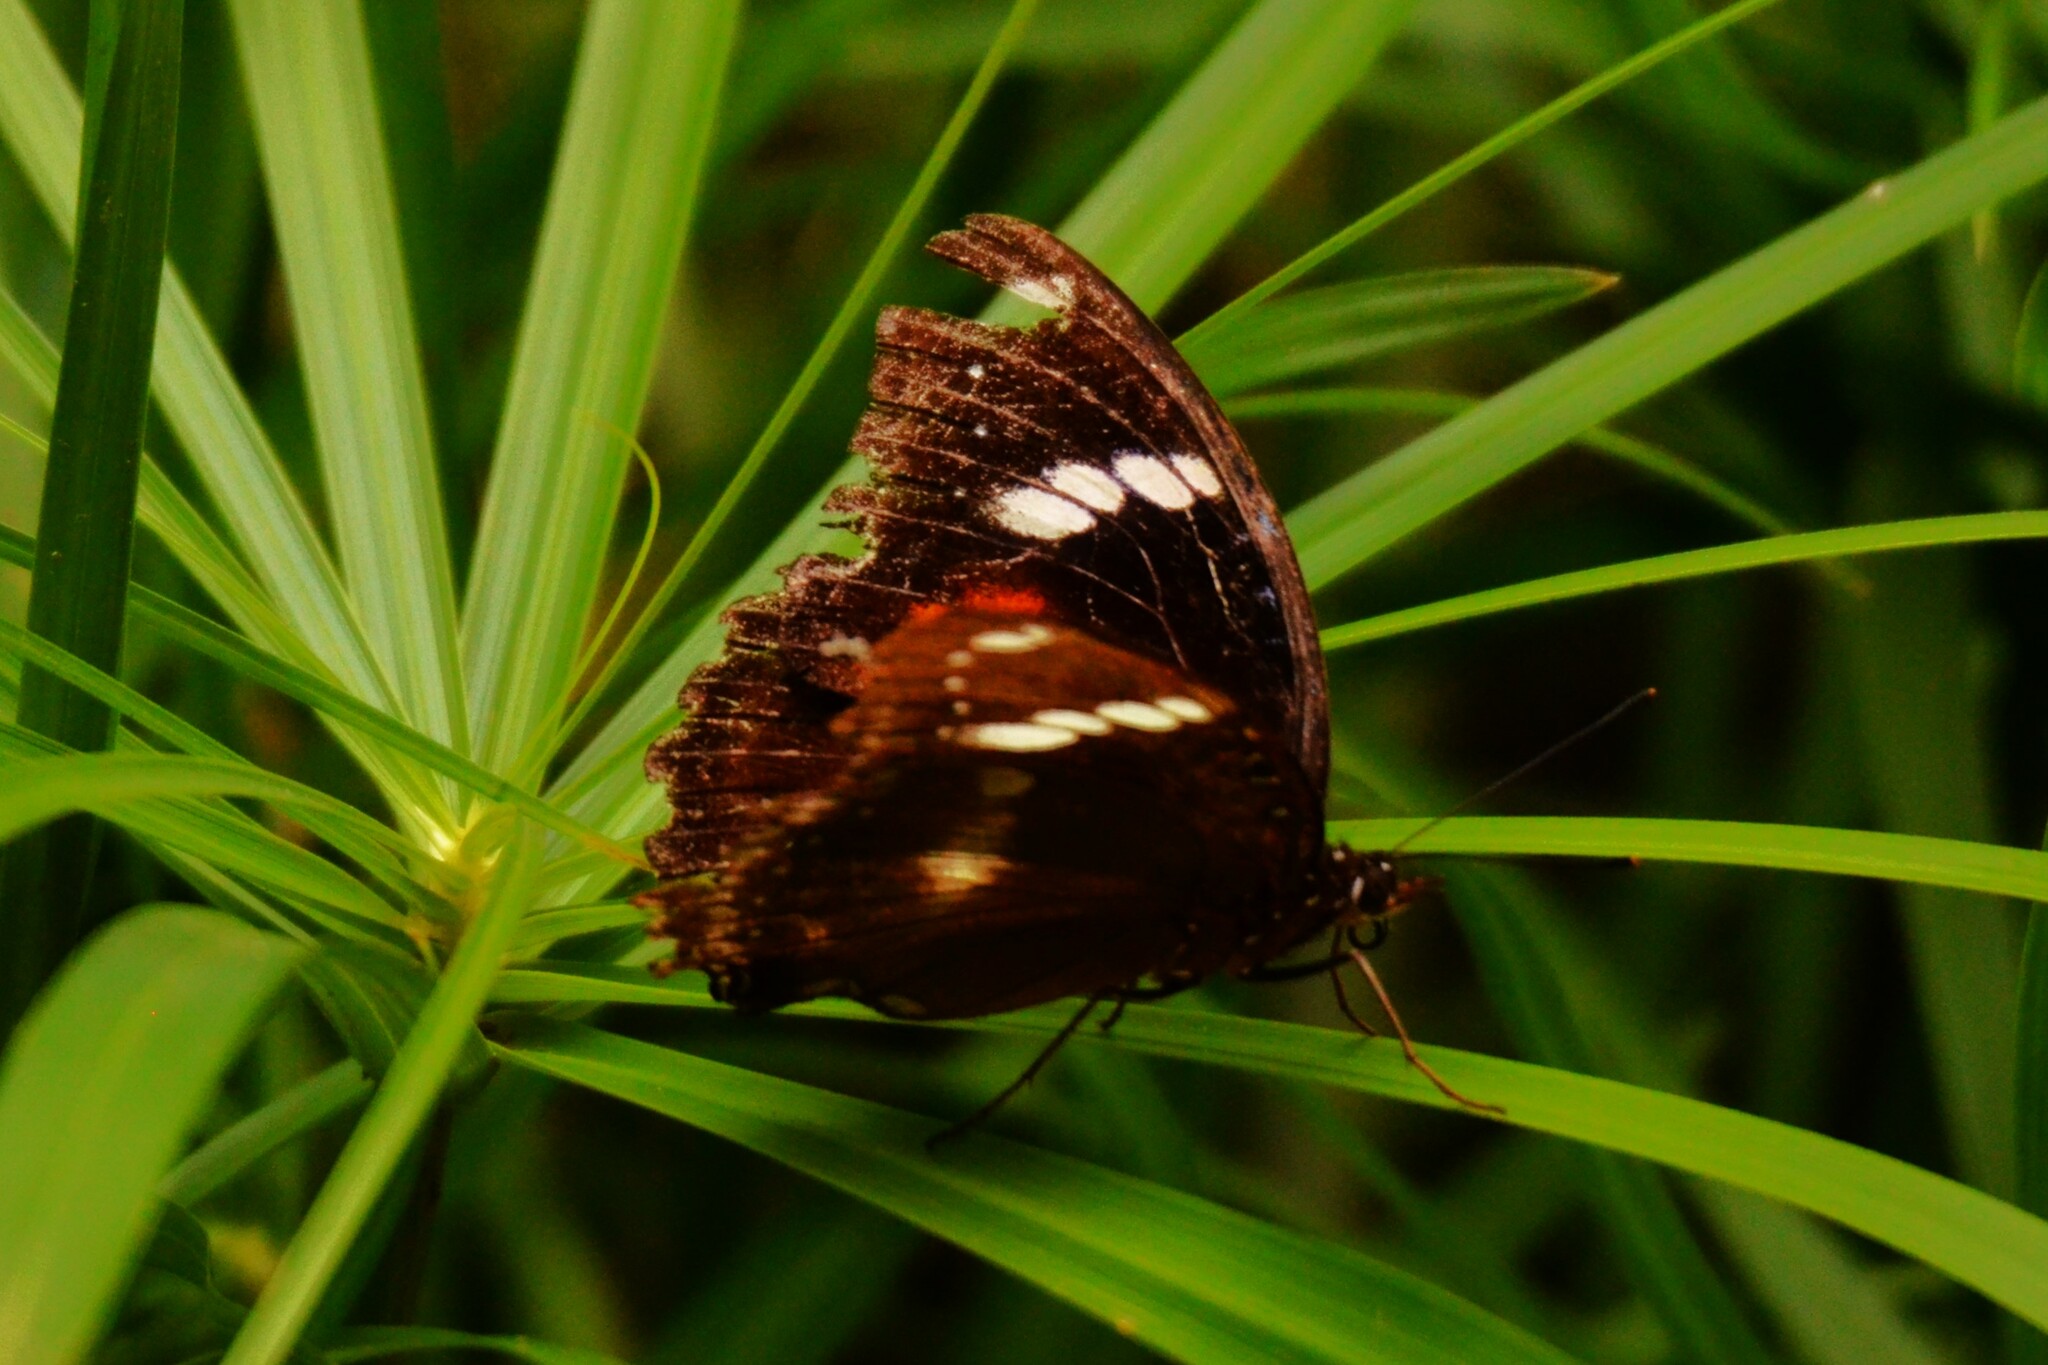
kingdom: Animalia
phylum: Arthropoda
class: Insecta
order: Lepidoptera
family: Nymphalidae
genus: Hypolimnas
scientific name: Hypolimnas bolina
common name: Great eggfly
